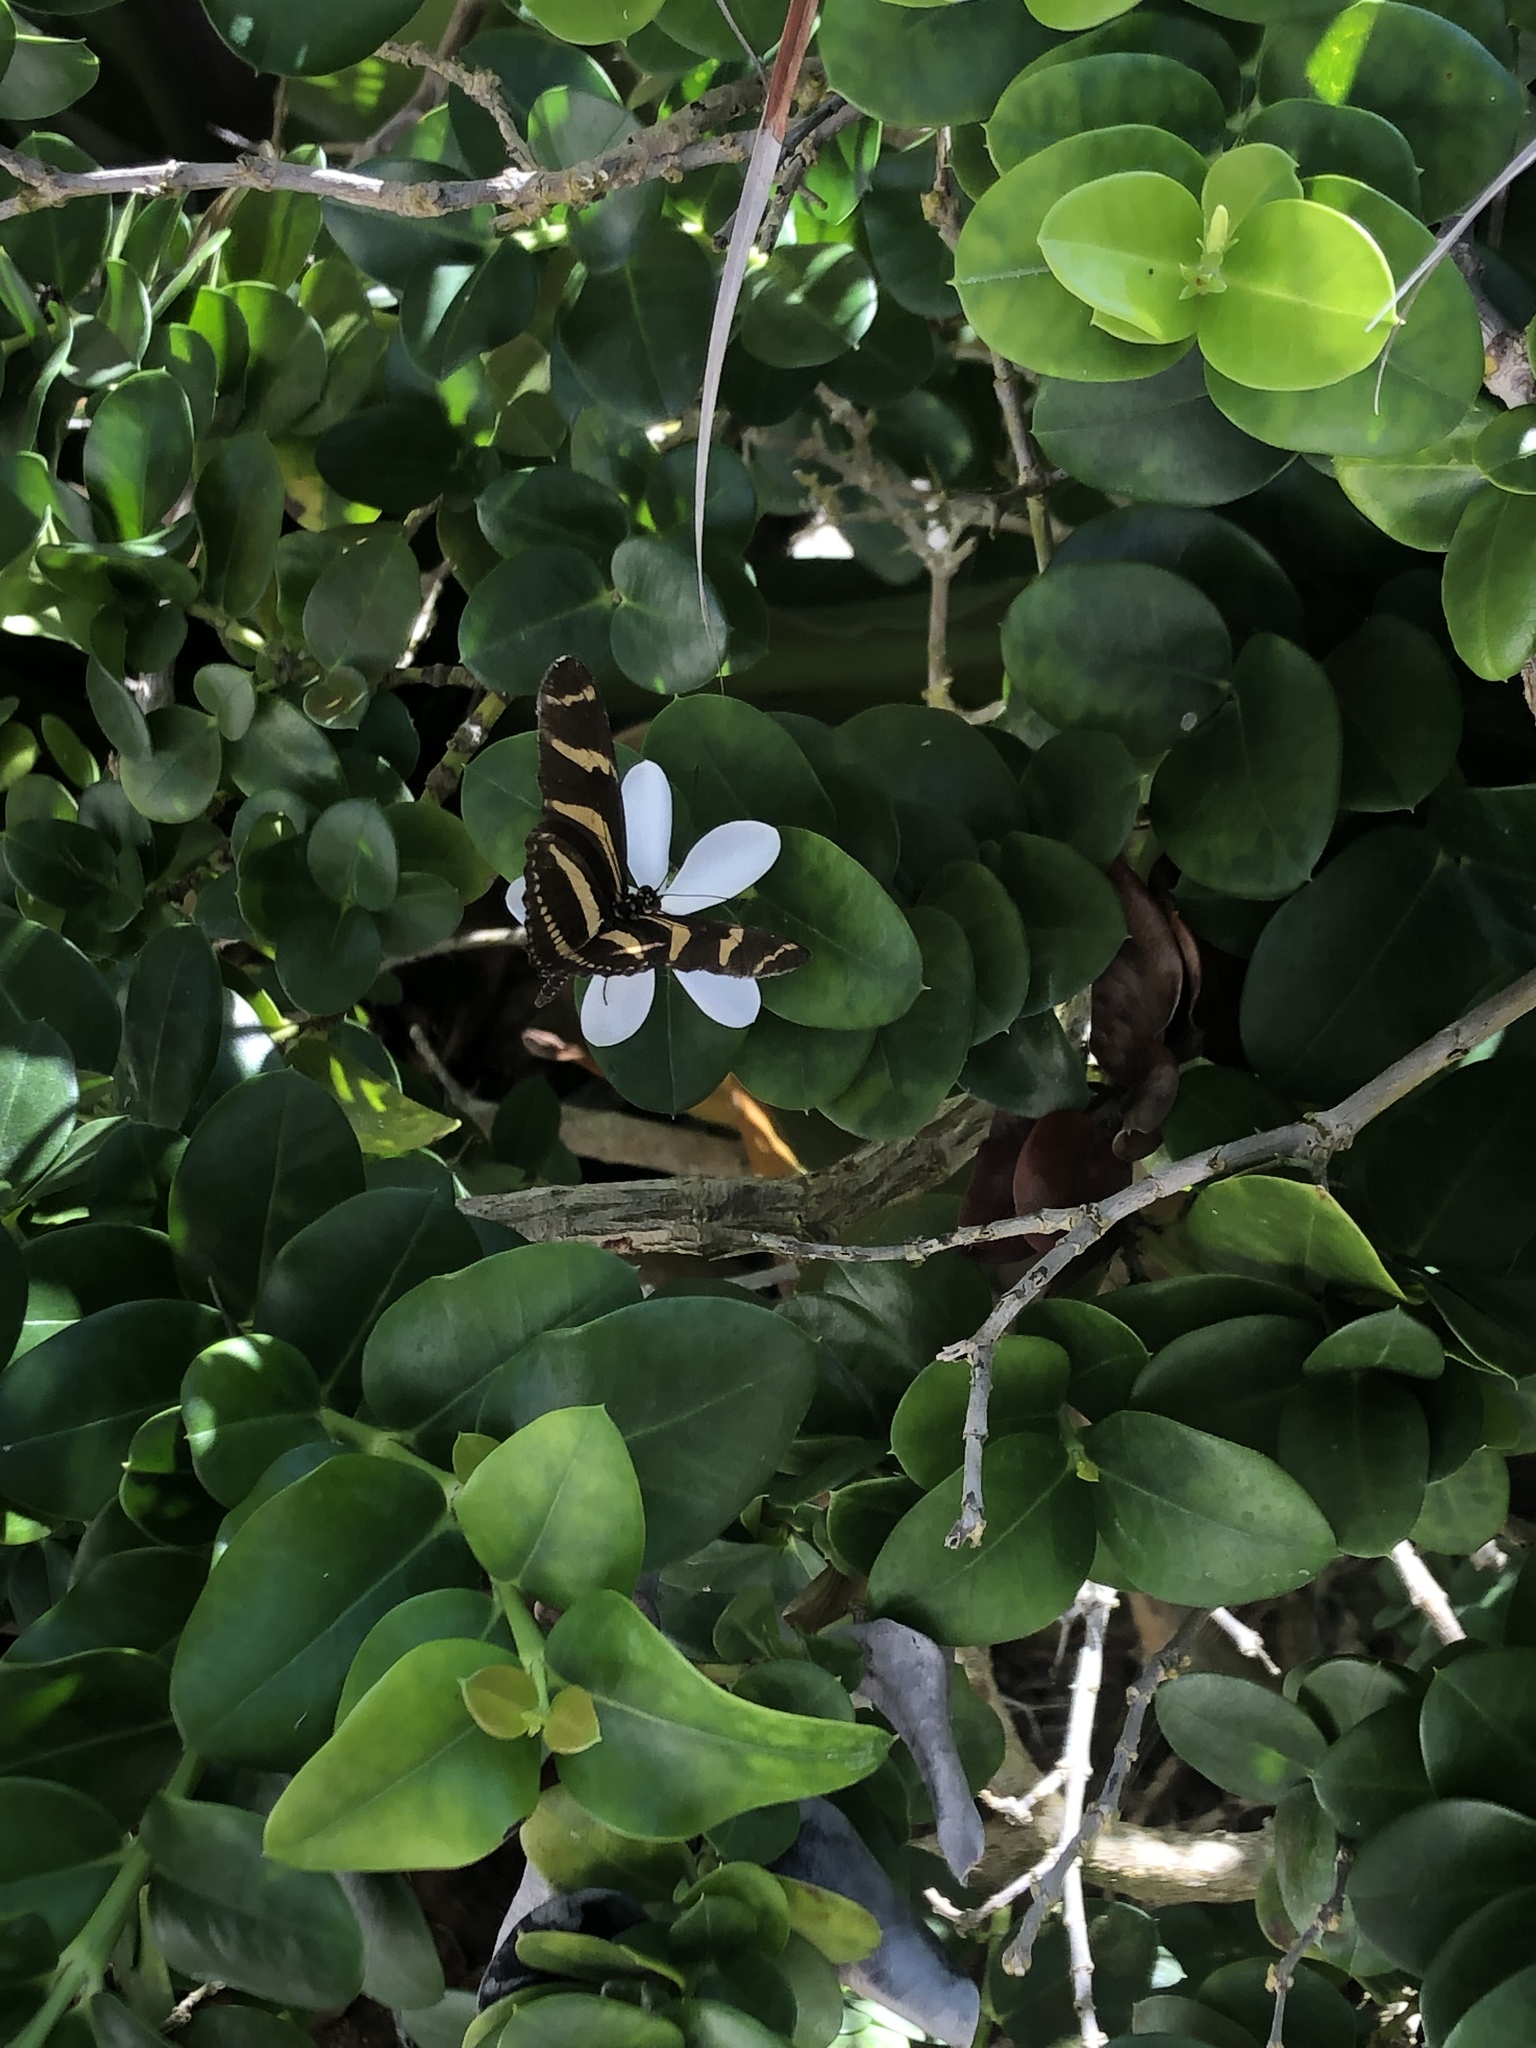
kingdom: Animalia
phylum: Arthropoda
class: Insecta
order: Lepidoptera
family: Nymphalidae
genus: Heliconius
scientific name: Heliconius charithonia
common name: Zebra long wing
